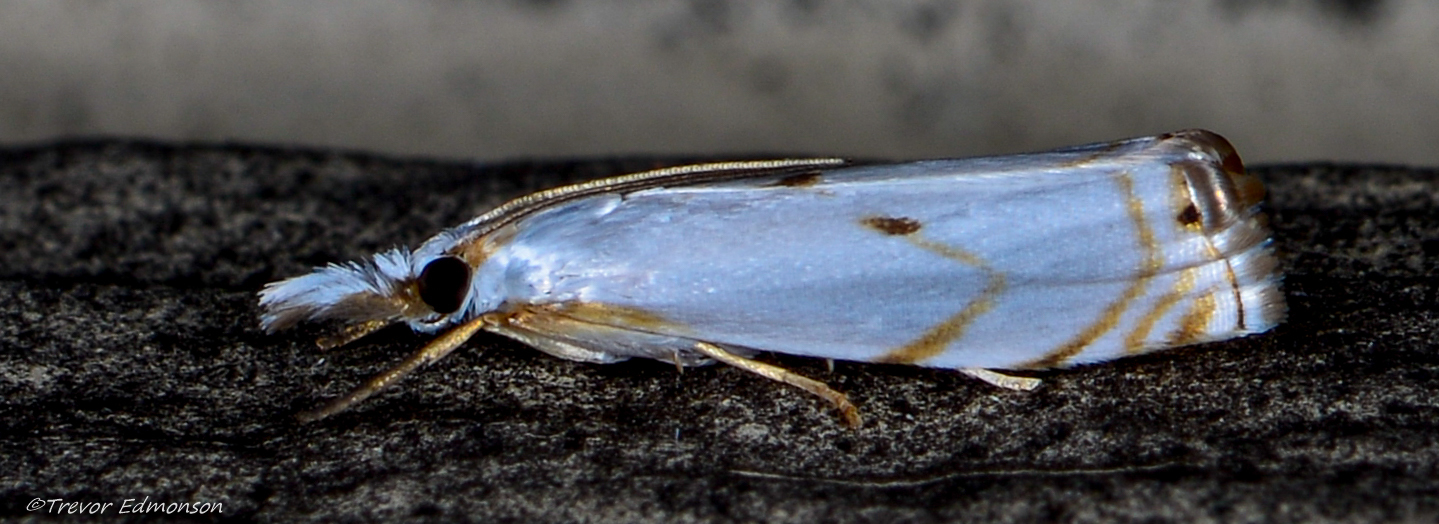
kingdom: Animalia
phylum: Arthropoda
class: Insecta
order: Lepidoptera
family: Crambidae
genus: Microcrambus
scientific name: Microcrambus biguttellus
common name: Gold-stripe grass-veneer moth
